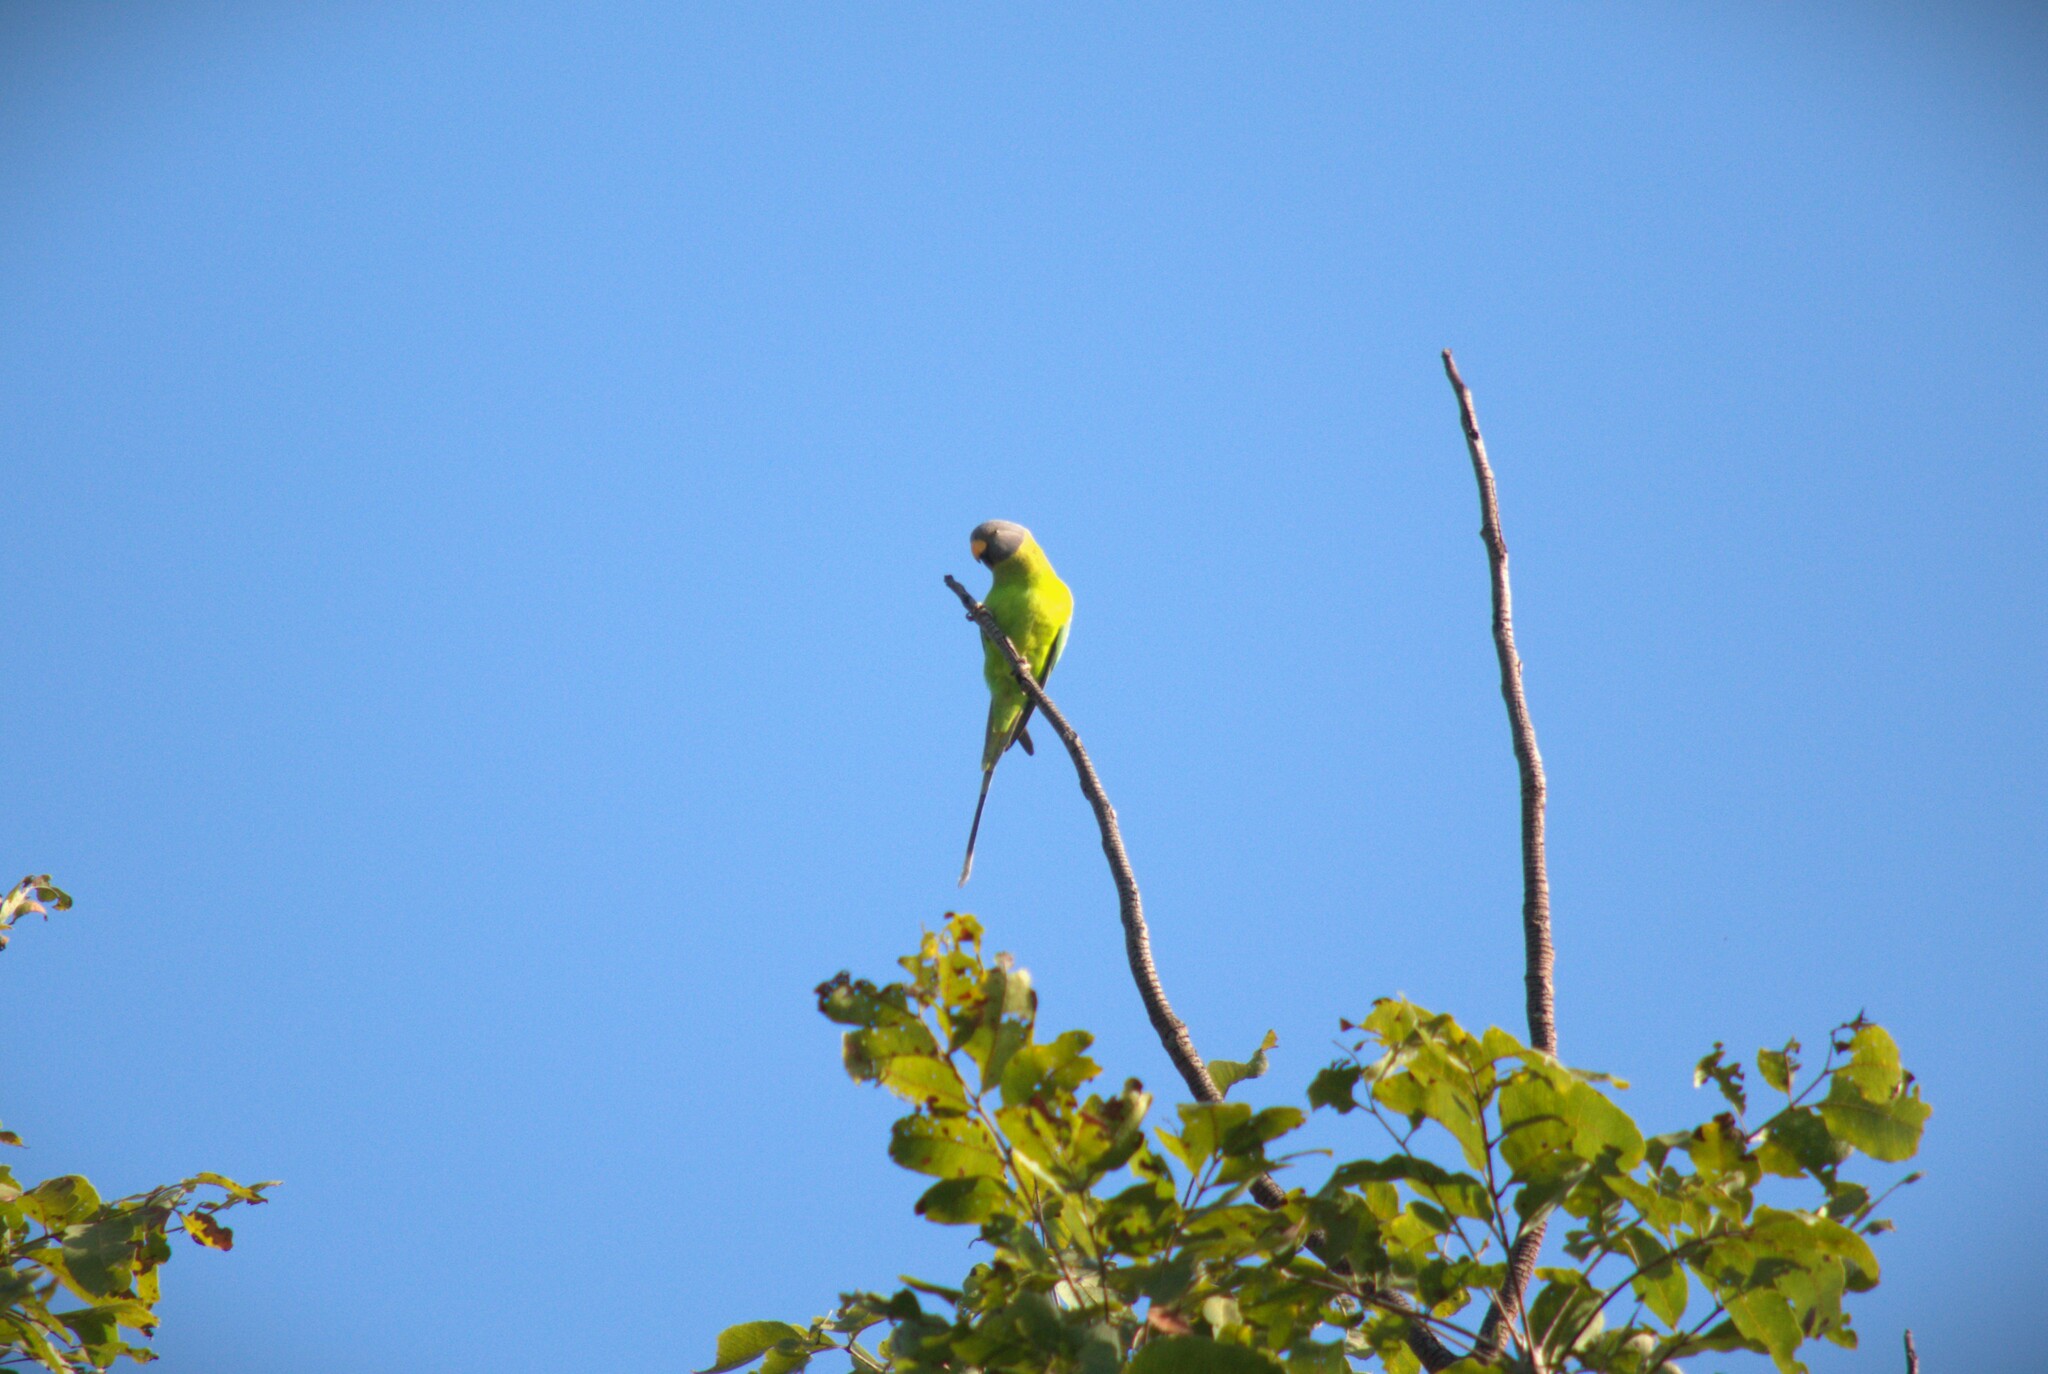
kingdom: Animalia
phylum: Chordata
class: Aves
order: Psittaciformes
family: Psittacidae
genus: Psittacula
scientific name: Psittacula cyanocephala
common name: Plum-headed parakeet
